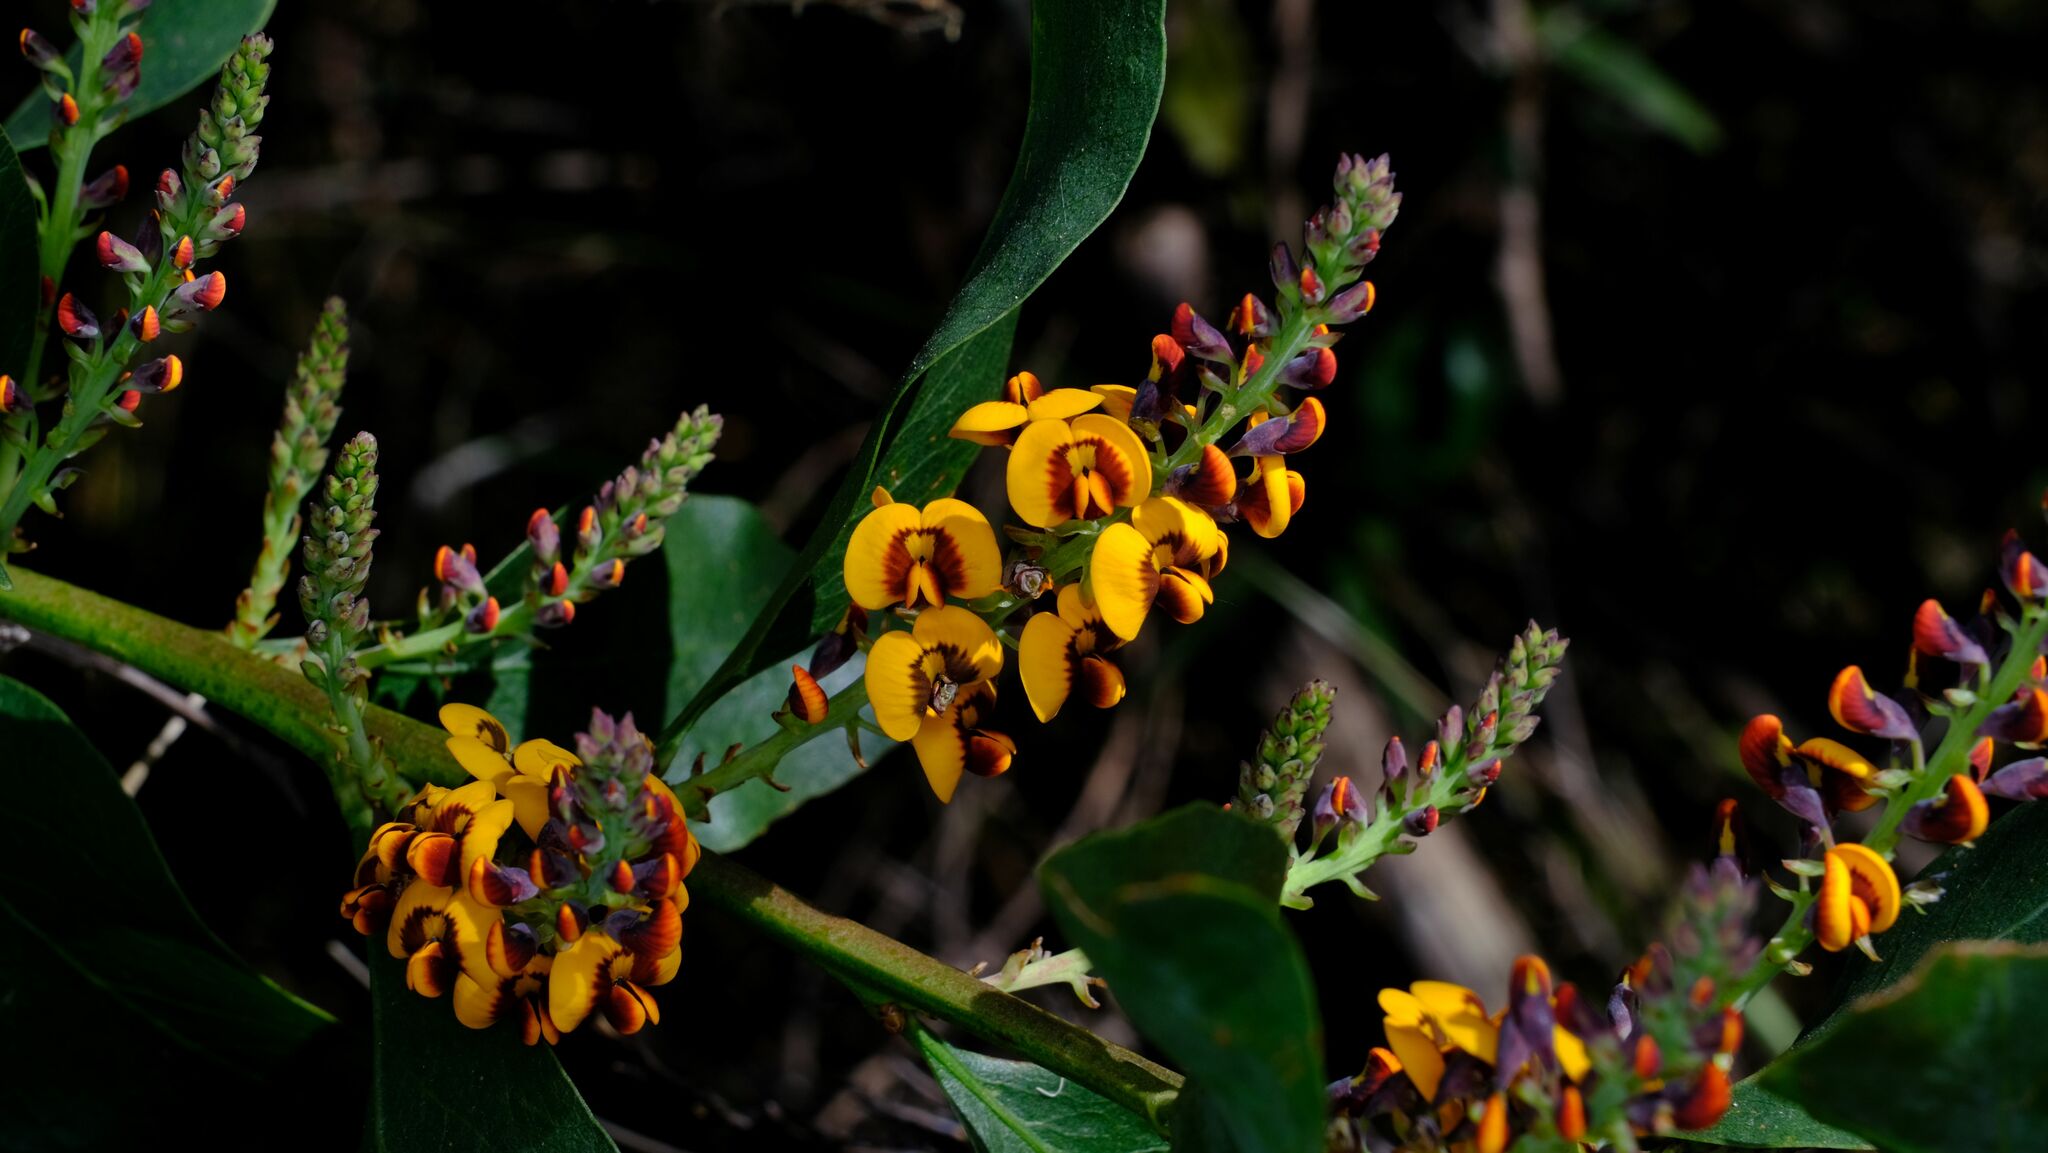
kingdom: Plantae
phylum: Tracheophyta
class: Magnoliopsida
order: Fabales
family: Fabaceae
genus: Daviesia
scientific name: Daviesia latifolia
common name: Hop bitter-pea
